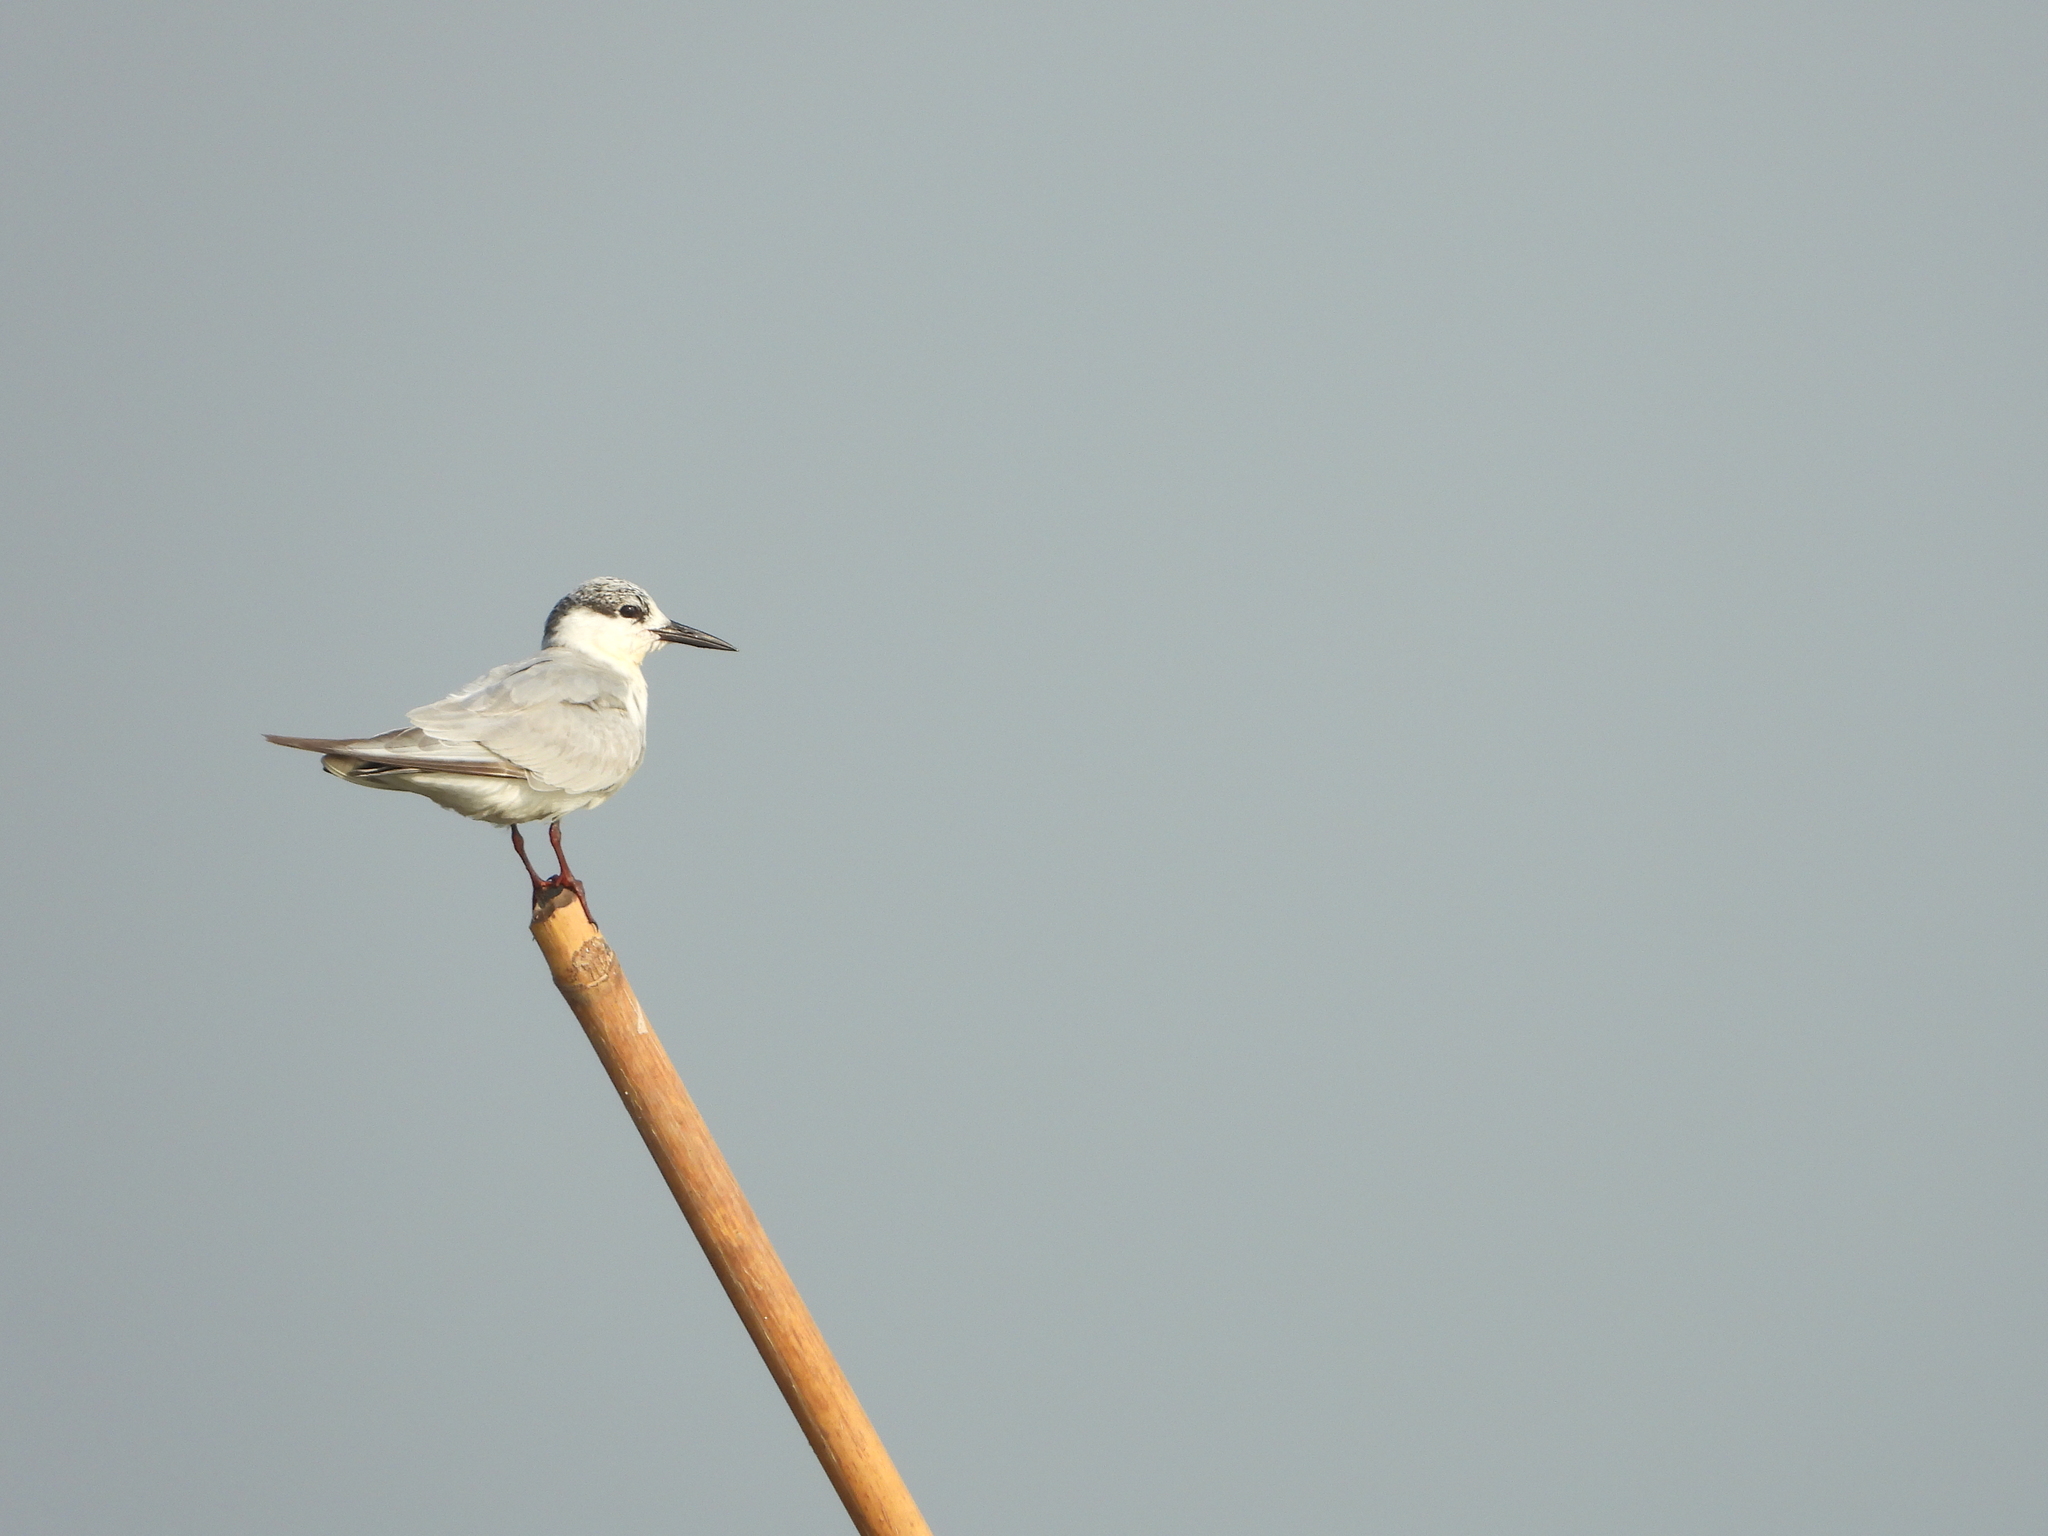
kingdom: Animalia
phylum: Chordata
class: Aves
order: Charadriiformes
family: Laridae
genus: Chlidonias
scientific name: Chlidonias hybrida
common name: Whiskered tern
